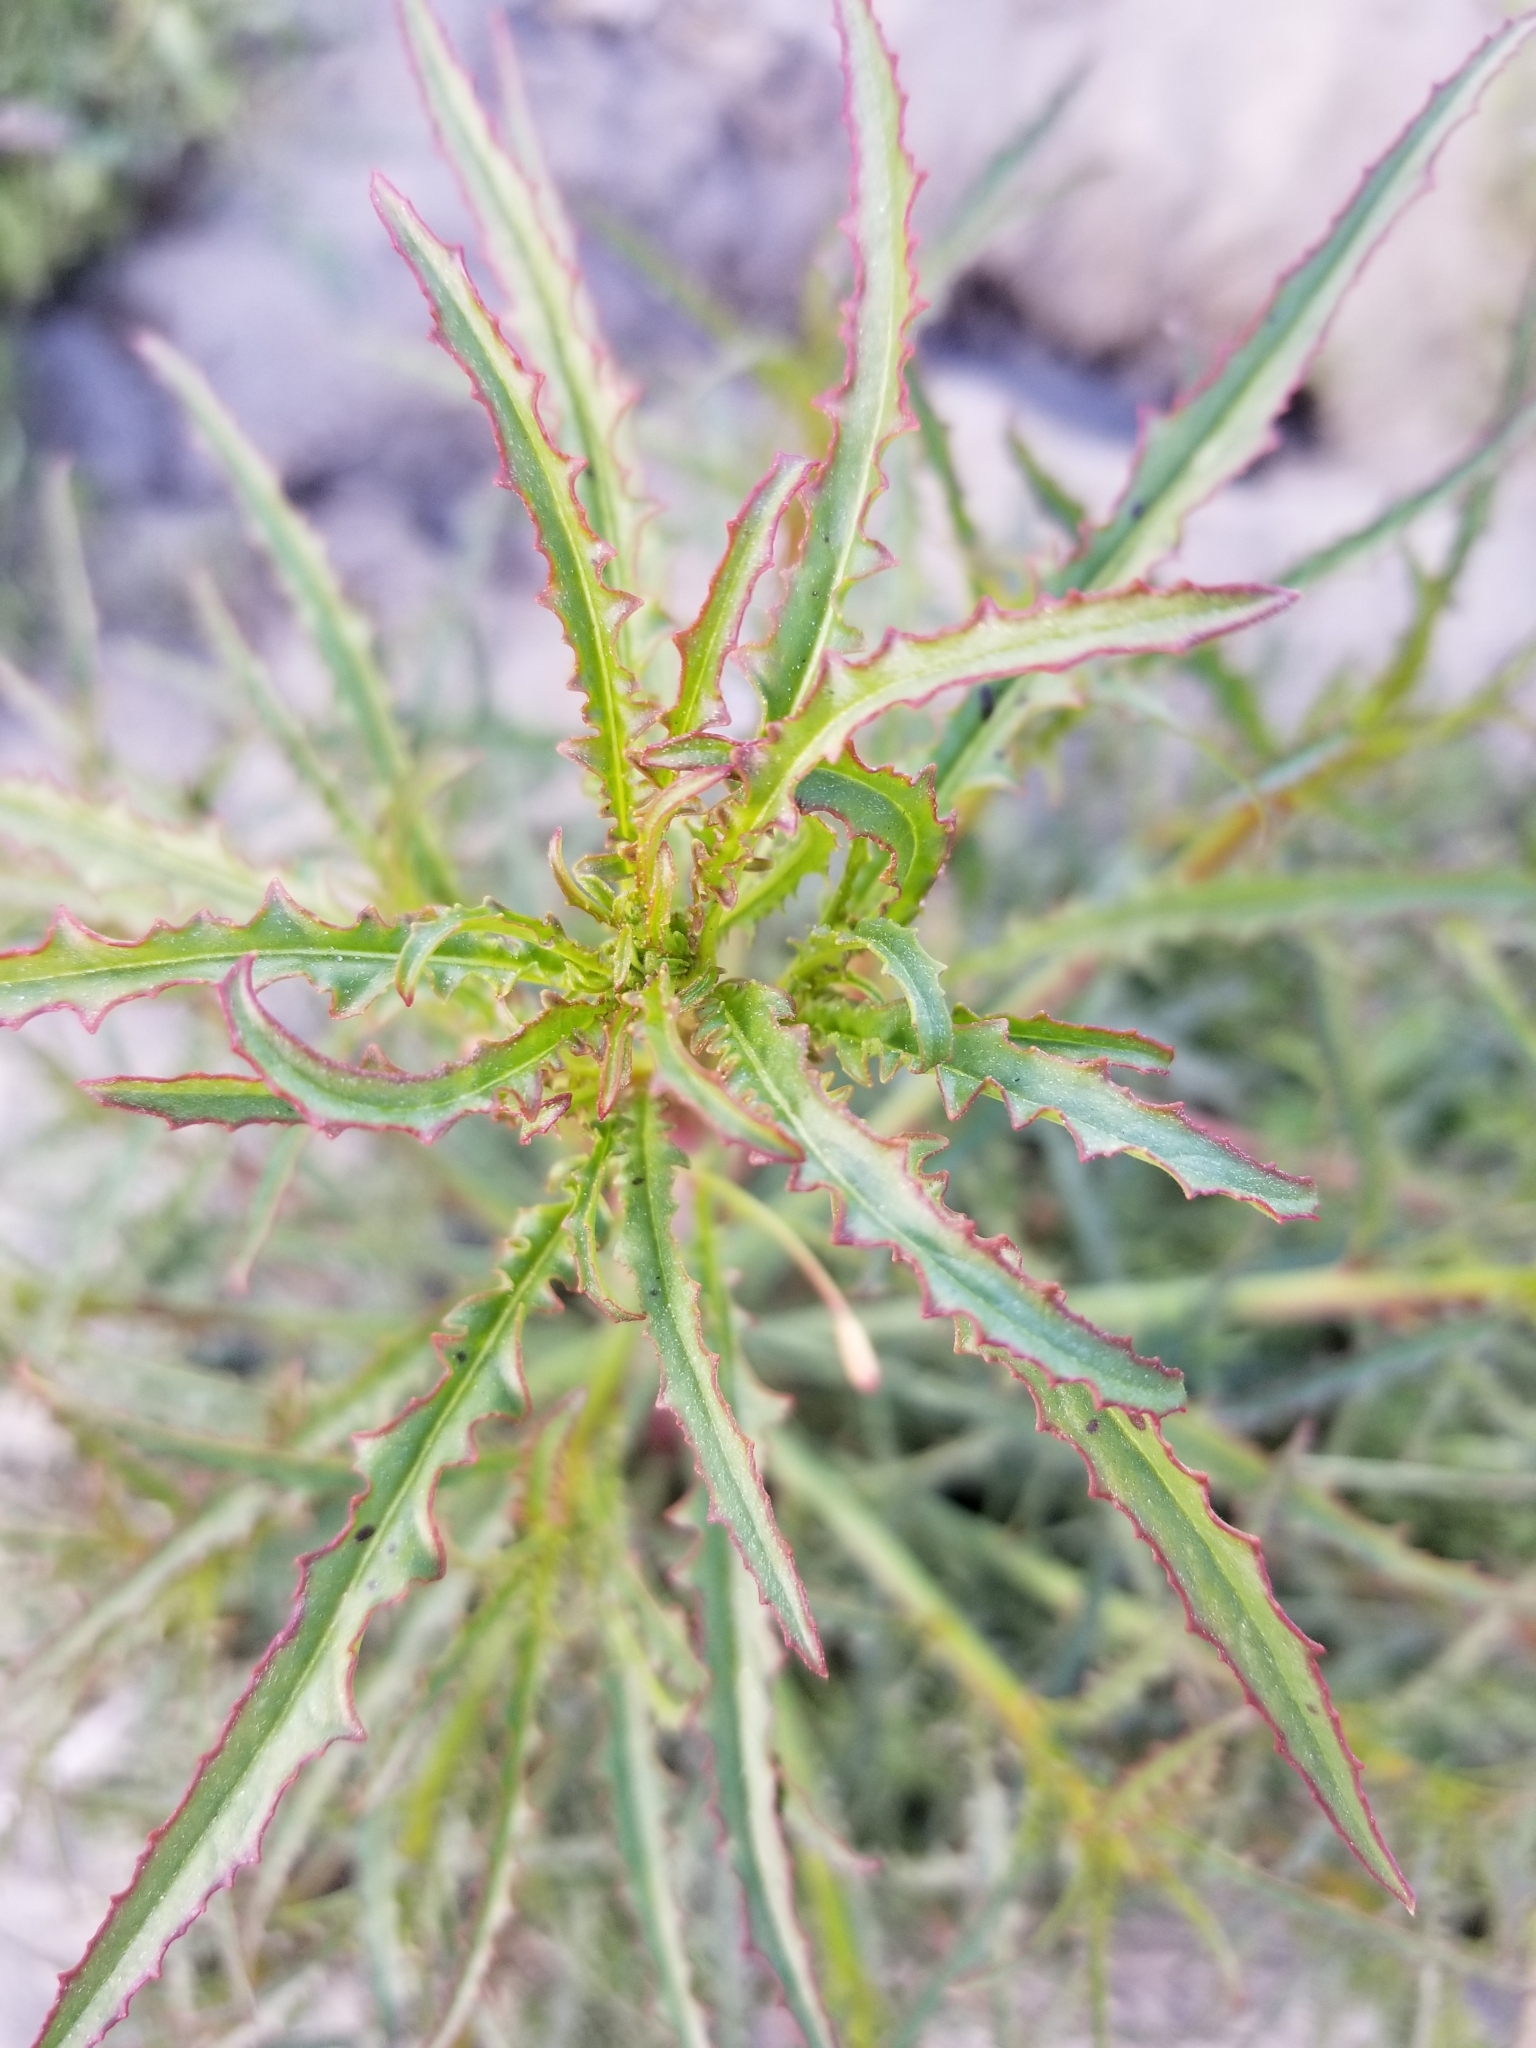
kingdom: Plantae
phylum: Tracheophyta
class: Magnoliopsida
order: Myrtales
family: Onagraceae
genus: Eulobus
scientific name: Eulobus californicus
